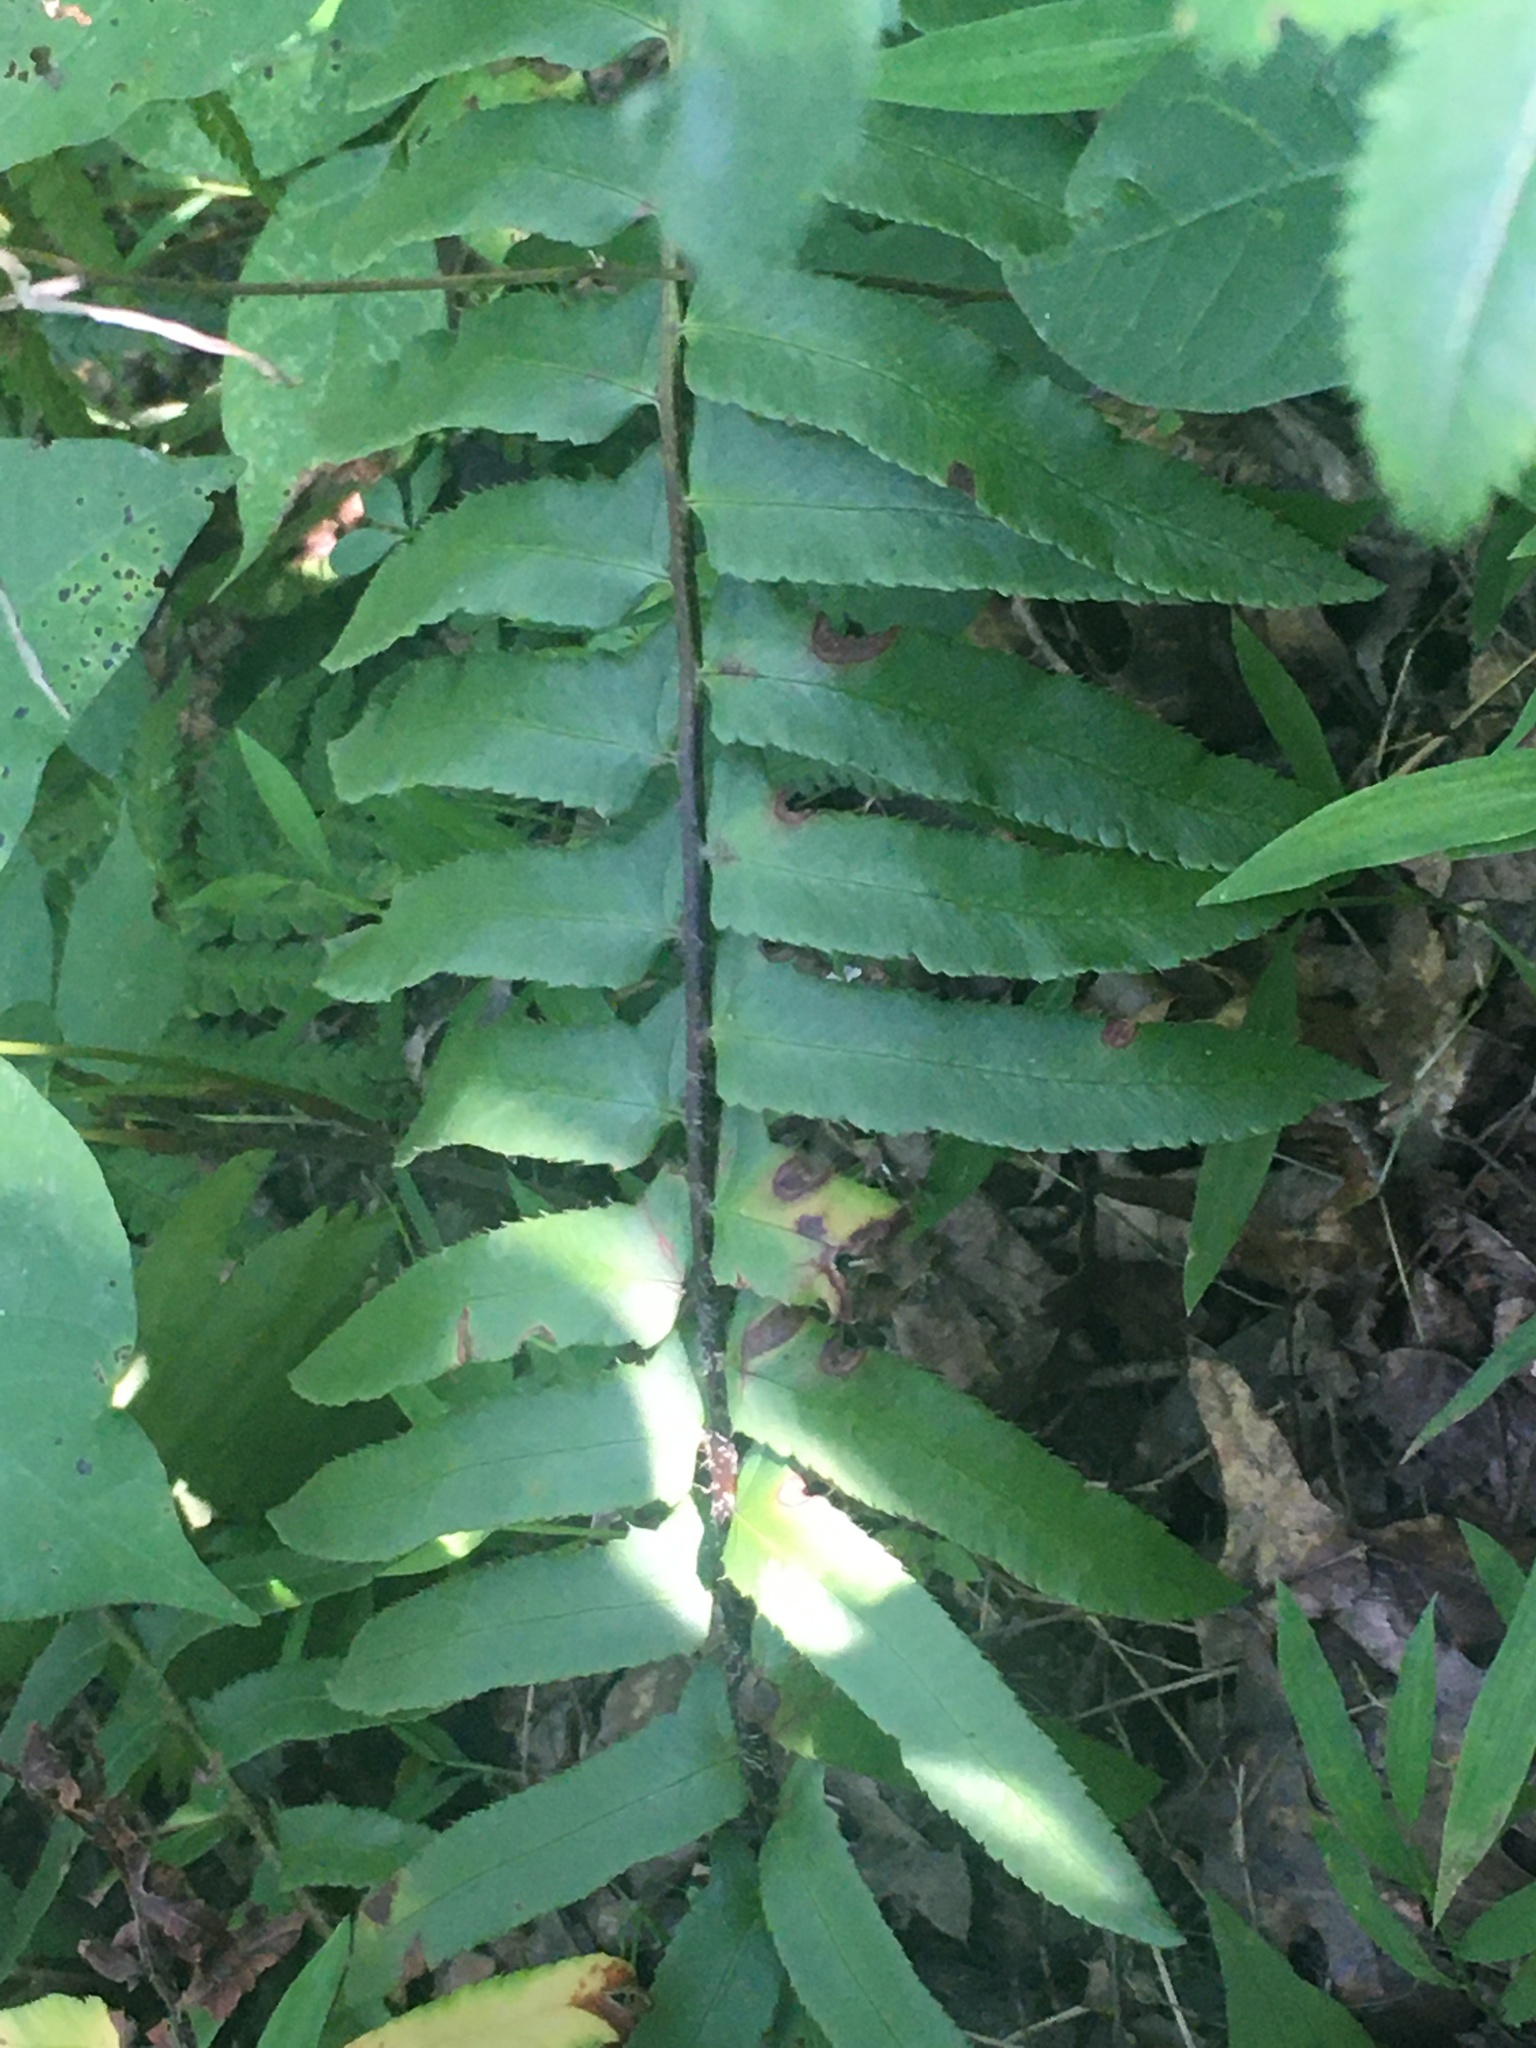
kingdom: Plantae
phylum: Tracheophyta
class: Polypodiopsida
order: Polypodiales
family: Dryopteridaceae
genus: Polystichum
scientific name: Polystichum acrostichoides
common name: Christmas fern
